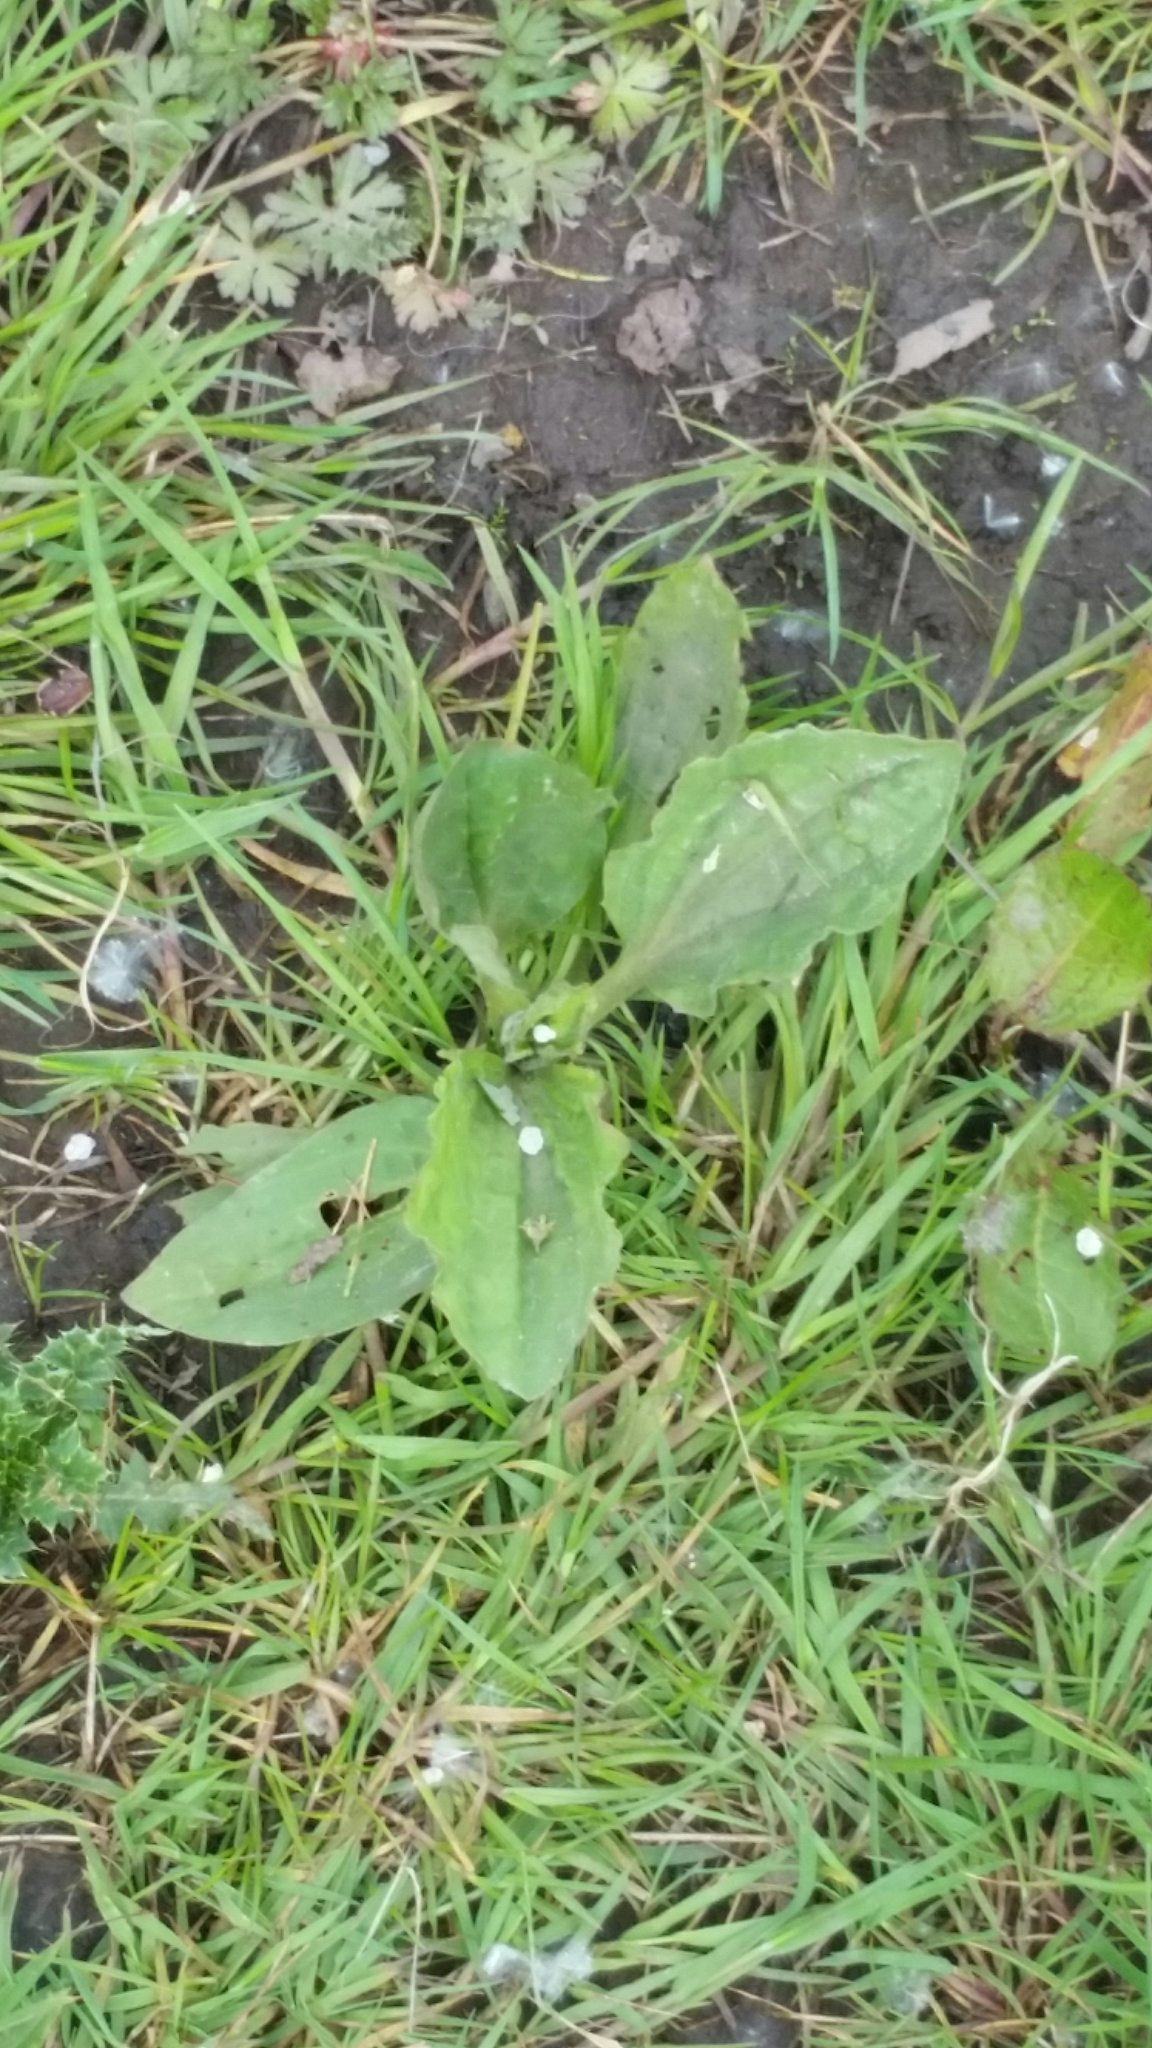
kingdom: Plantae
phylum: Tracheophyta
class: Magnoliopsida
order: Lamiales
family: Plantaginaceae
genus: Plantago
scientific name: Plantago major
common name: Common plantain
